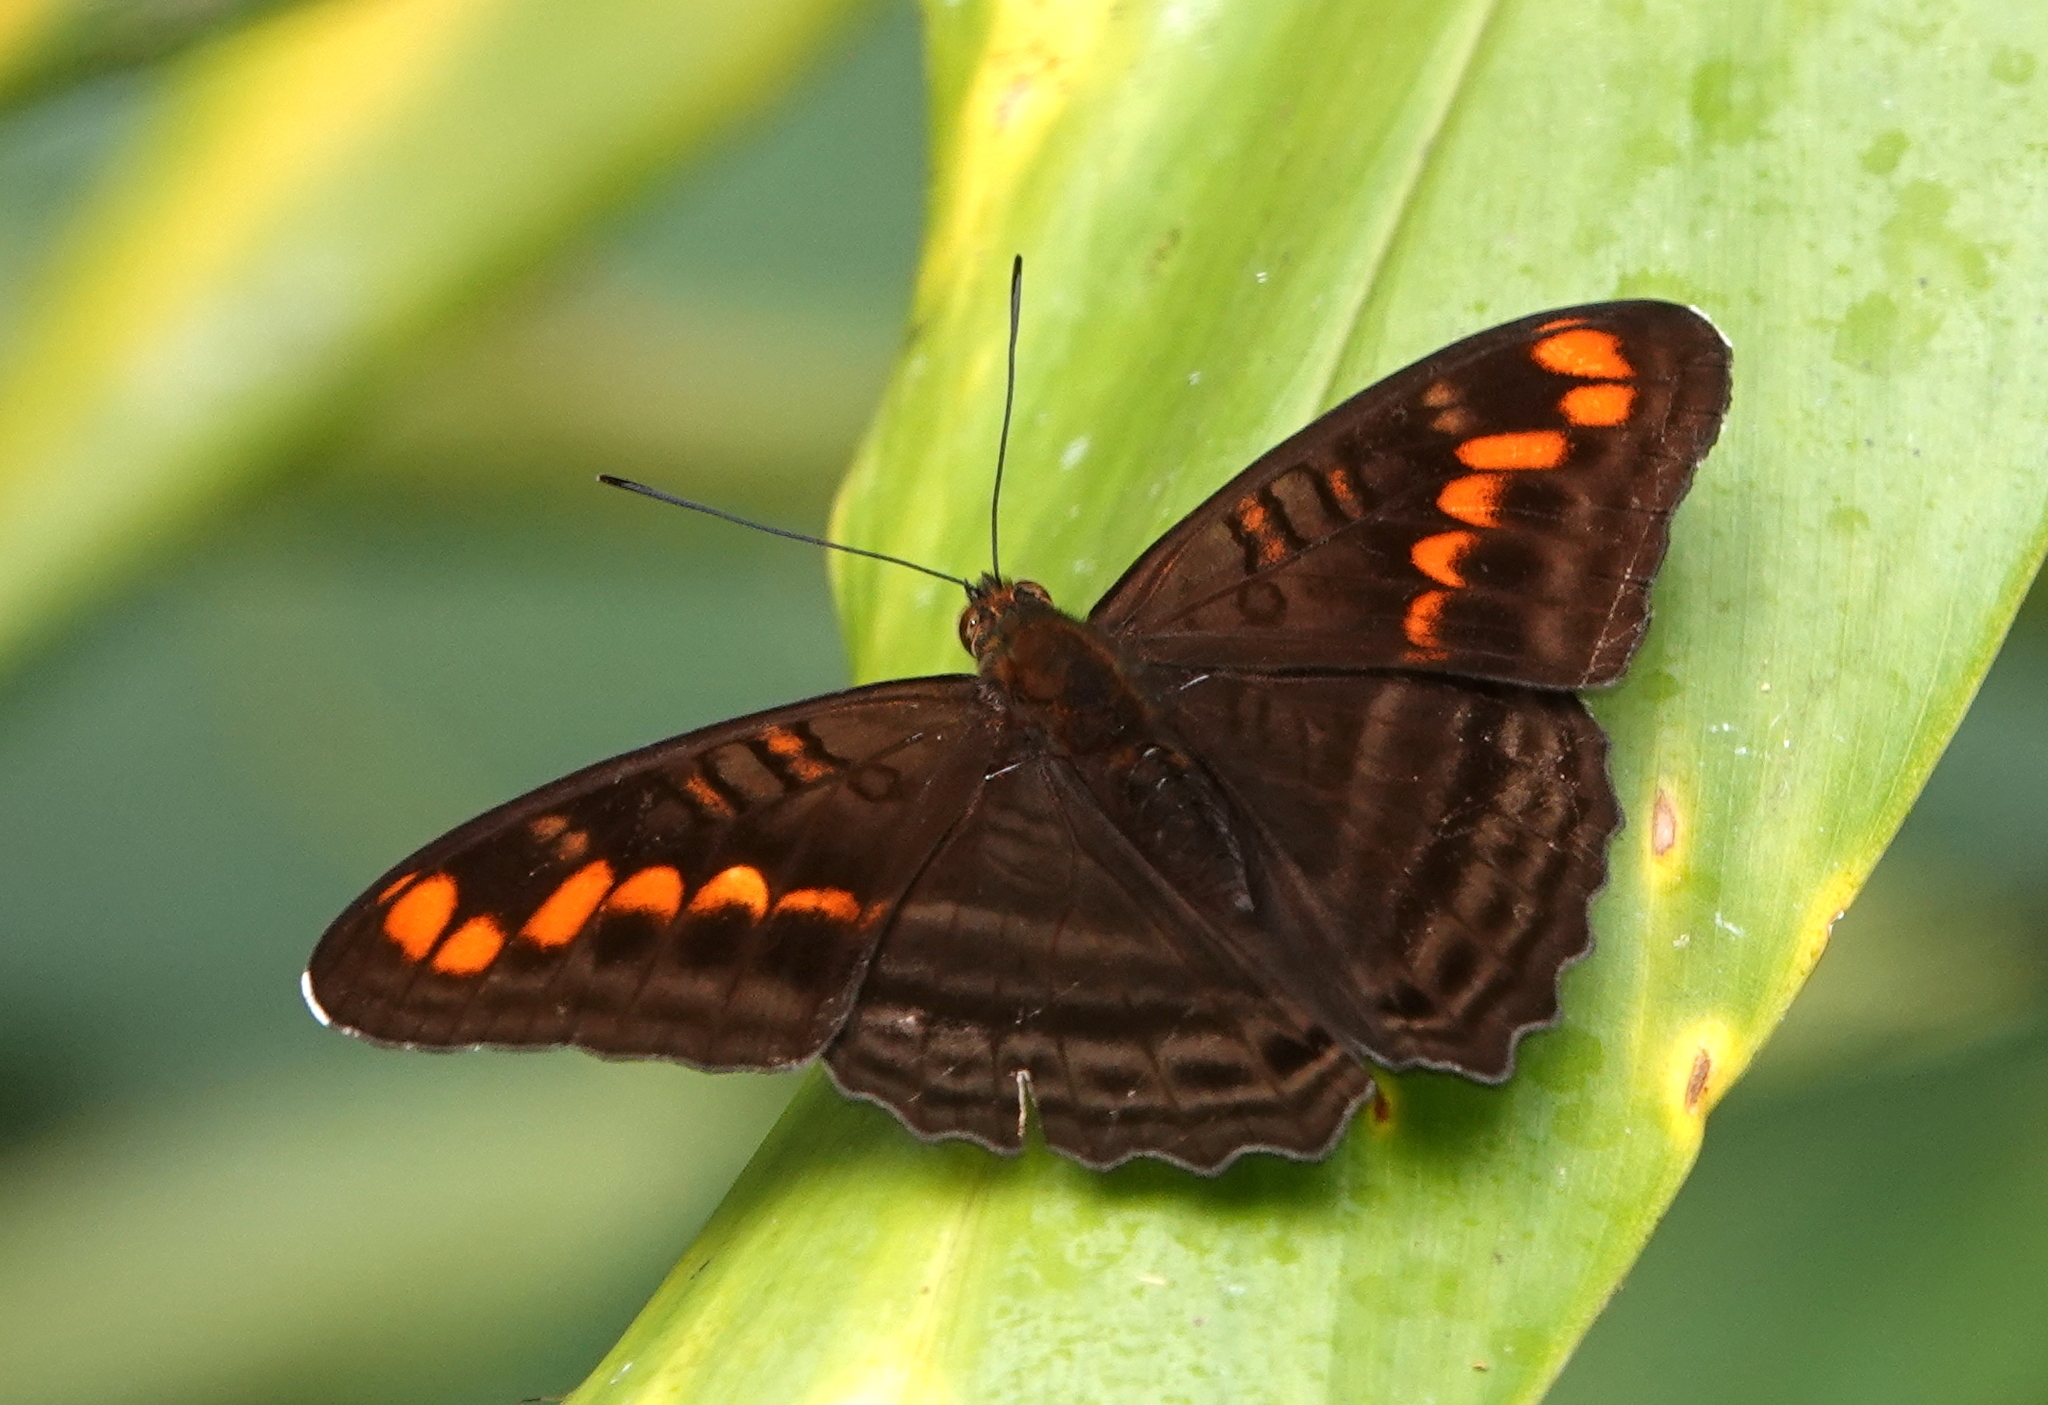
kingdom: Animalia
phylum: Arthropoda
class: Insecta
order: Lepidoptera
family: Nymphalidae
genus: Limenitis
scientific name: Limenitis levona
